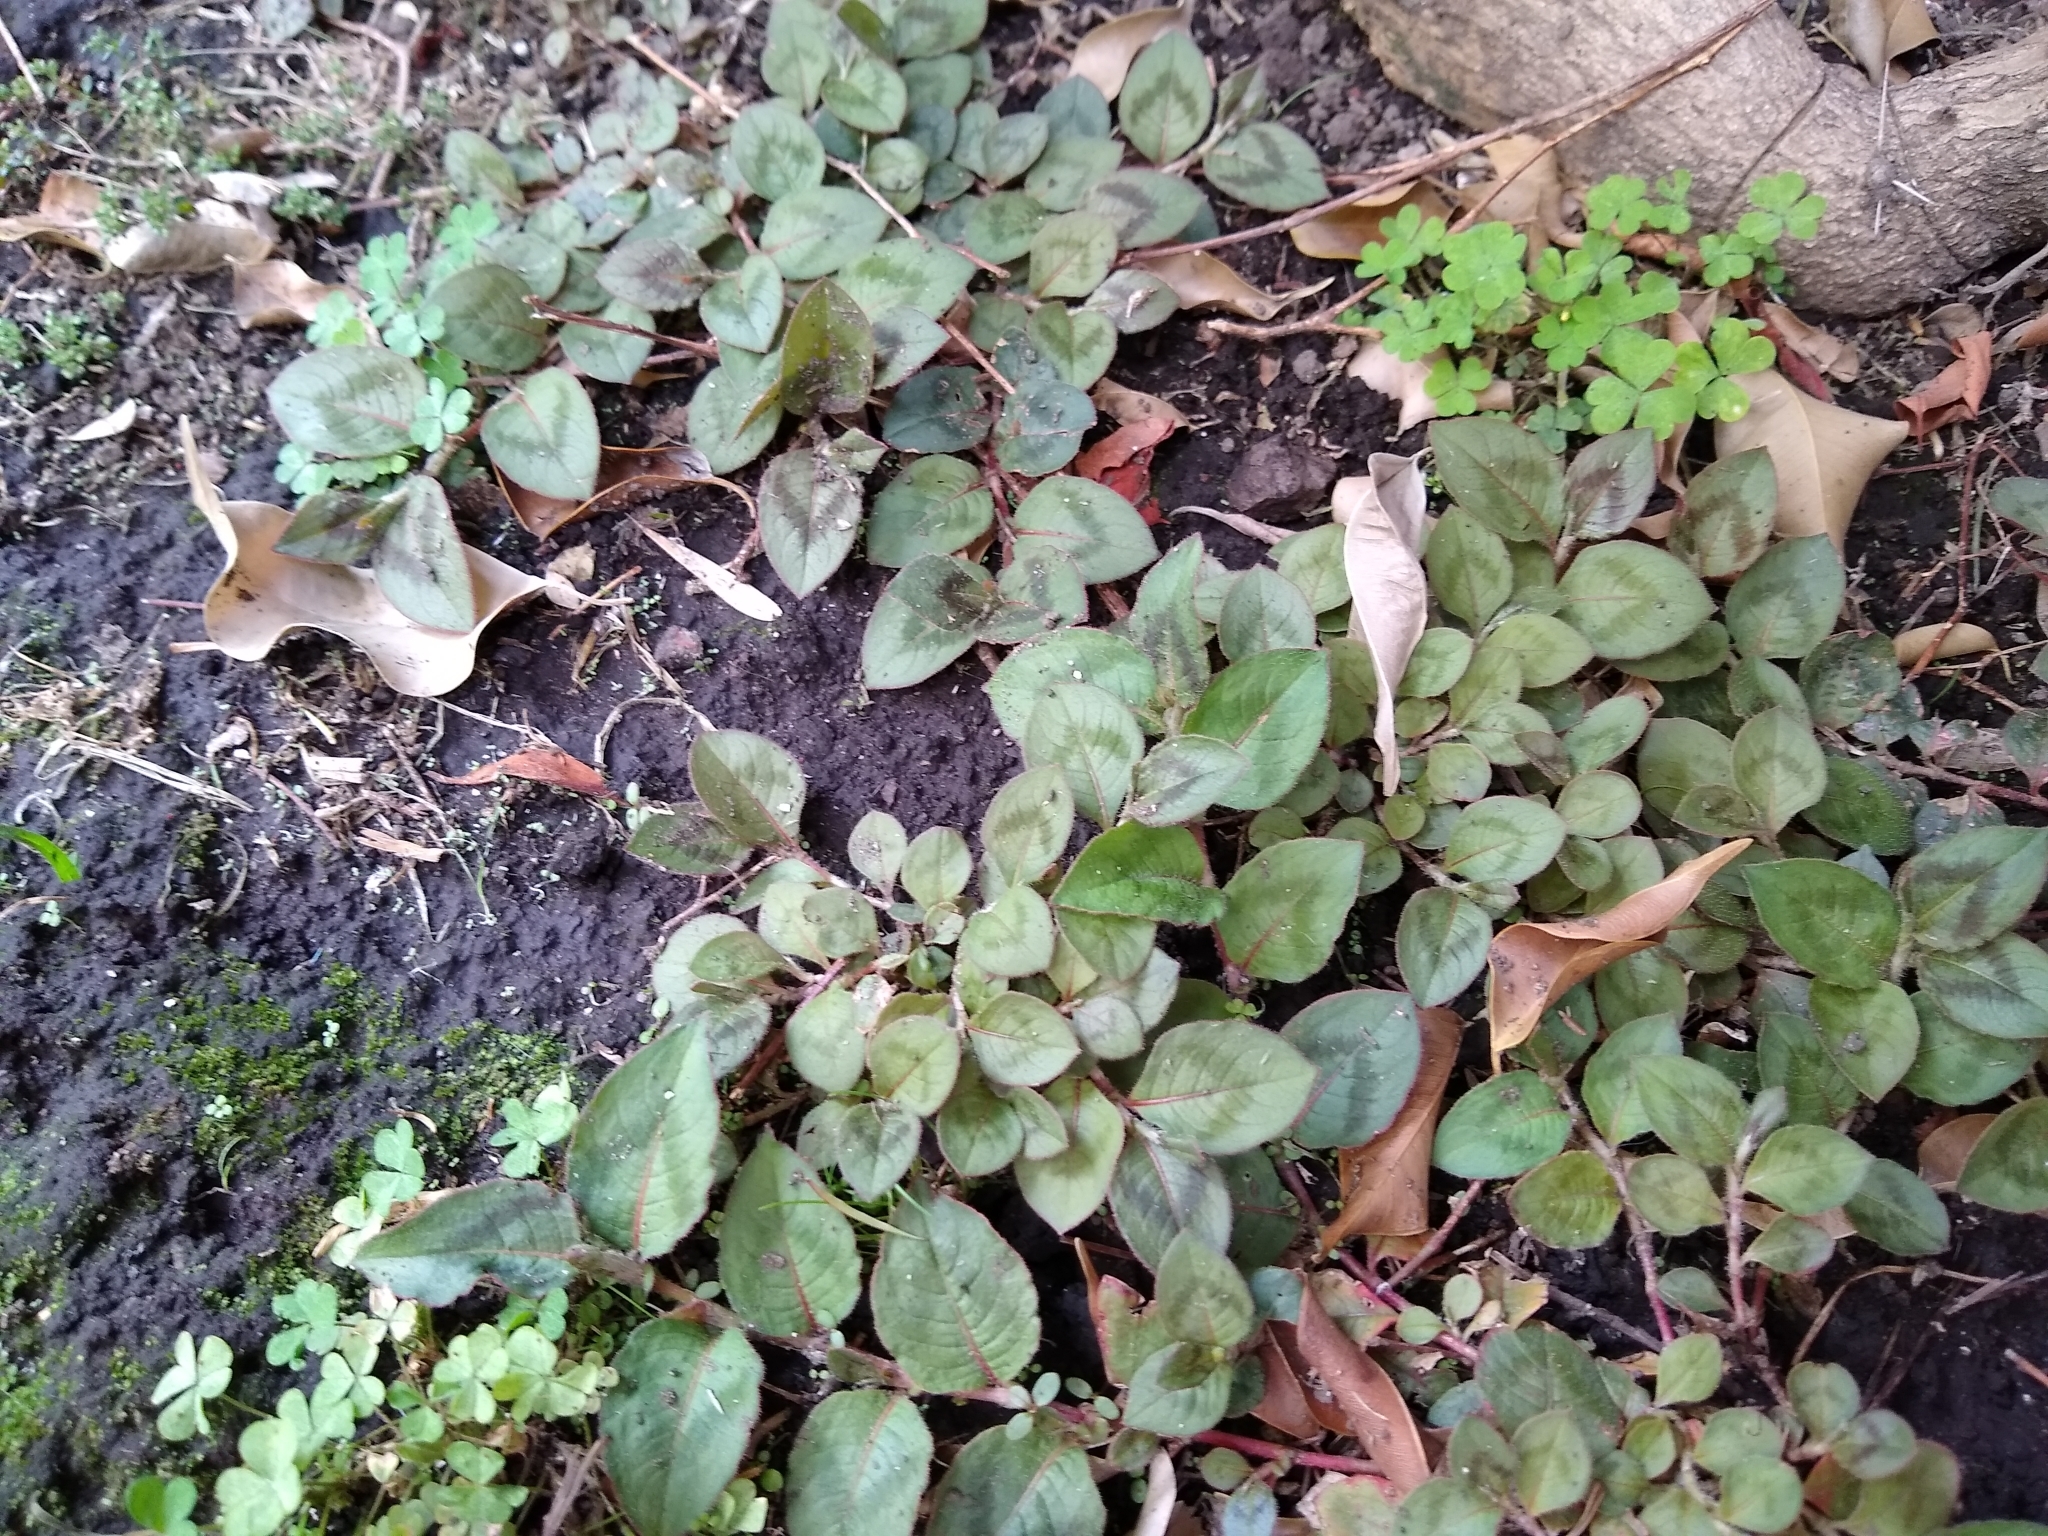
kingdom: Plantae
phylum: Tracheophyta
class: Magnoliopsida
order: Caryophyllales
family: Polygonaceae
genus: Persicaria
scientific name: Persicaria capitata
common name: Pinkhead smartweed
